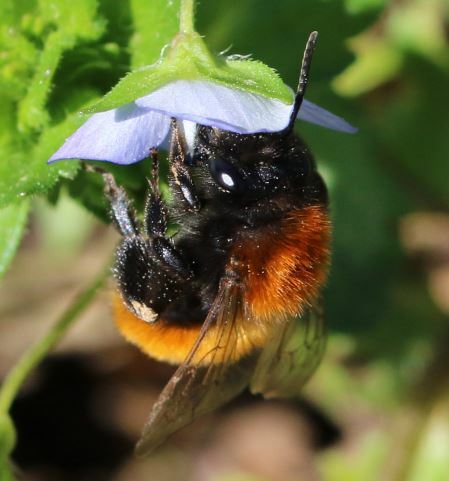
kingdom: Animalia
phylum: Arthropoda
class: Insecta
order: Hymenoptera
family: Andrenidae
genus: Andrena
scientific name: Andrena fulva
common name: Tawny mining bee
